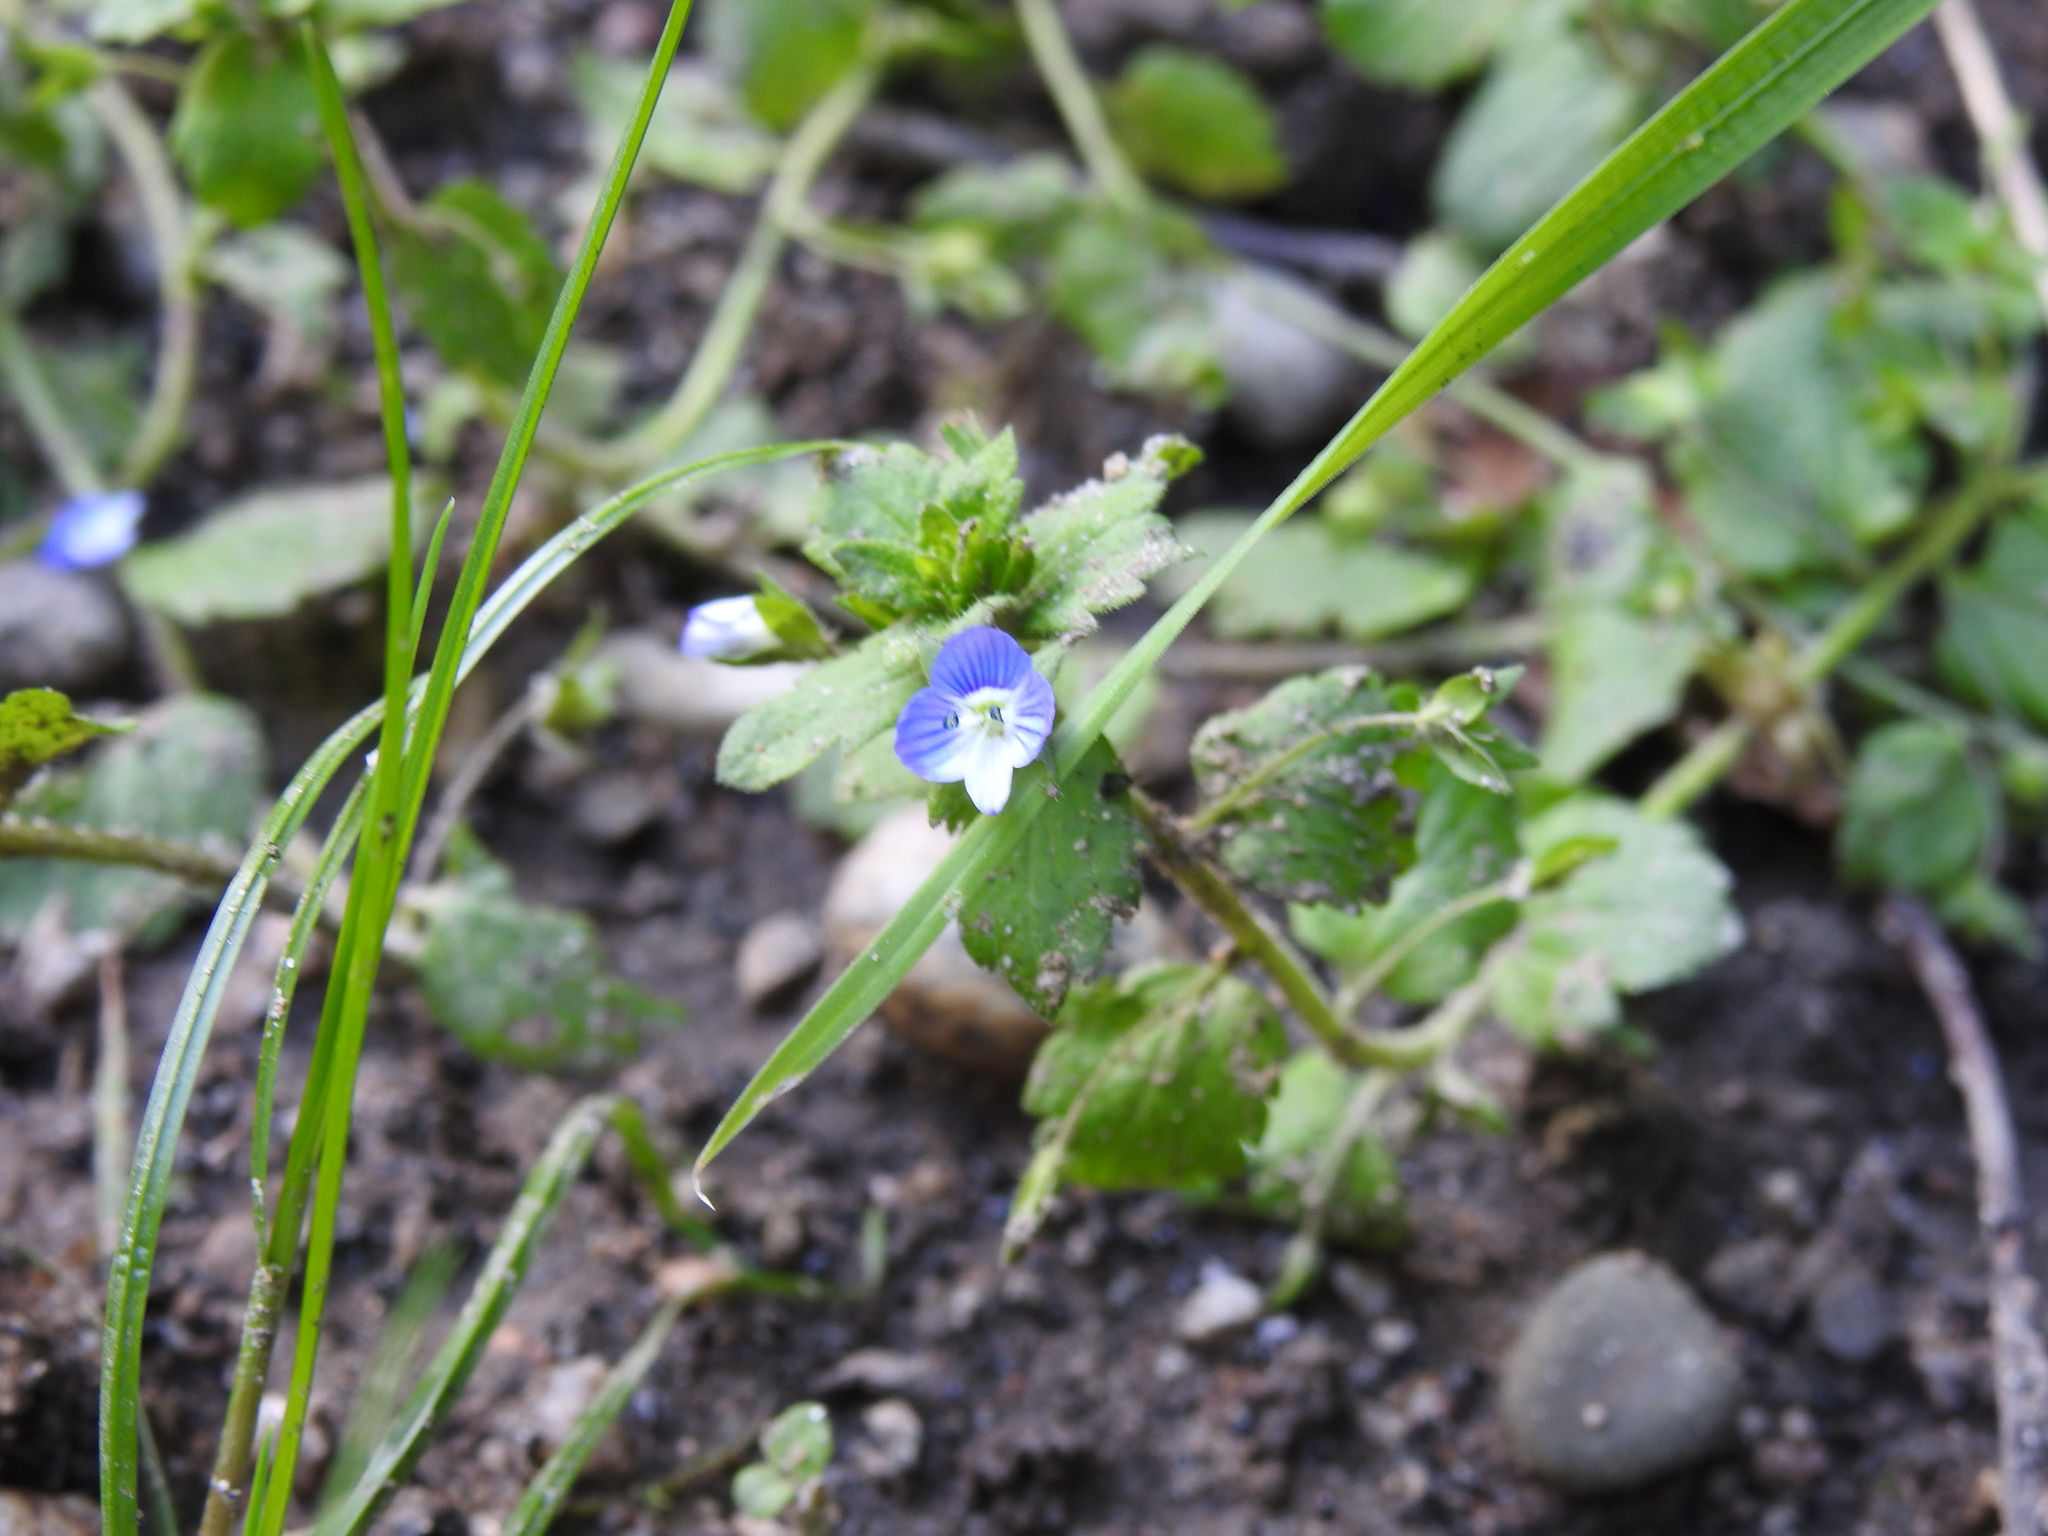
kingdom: Plantae
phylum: Tracheophyta
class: Magnoliopsida
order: Lamiales
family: Plantaginaceae
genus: Veronica
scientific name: Veronica persica
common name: Common field-speedwell
